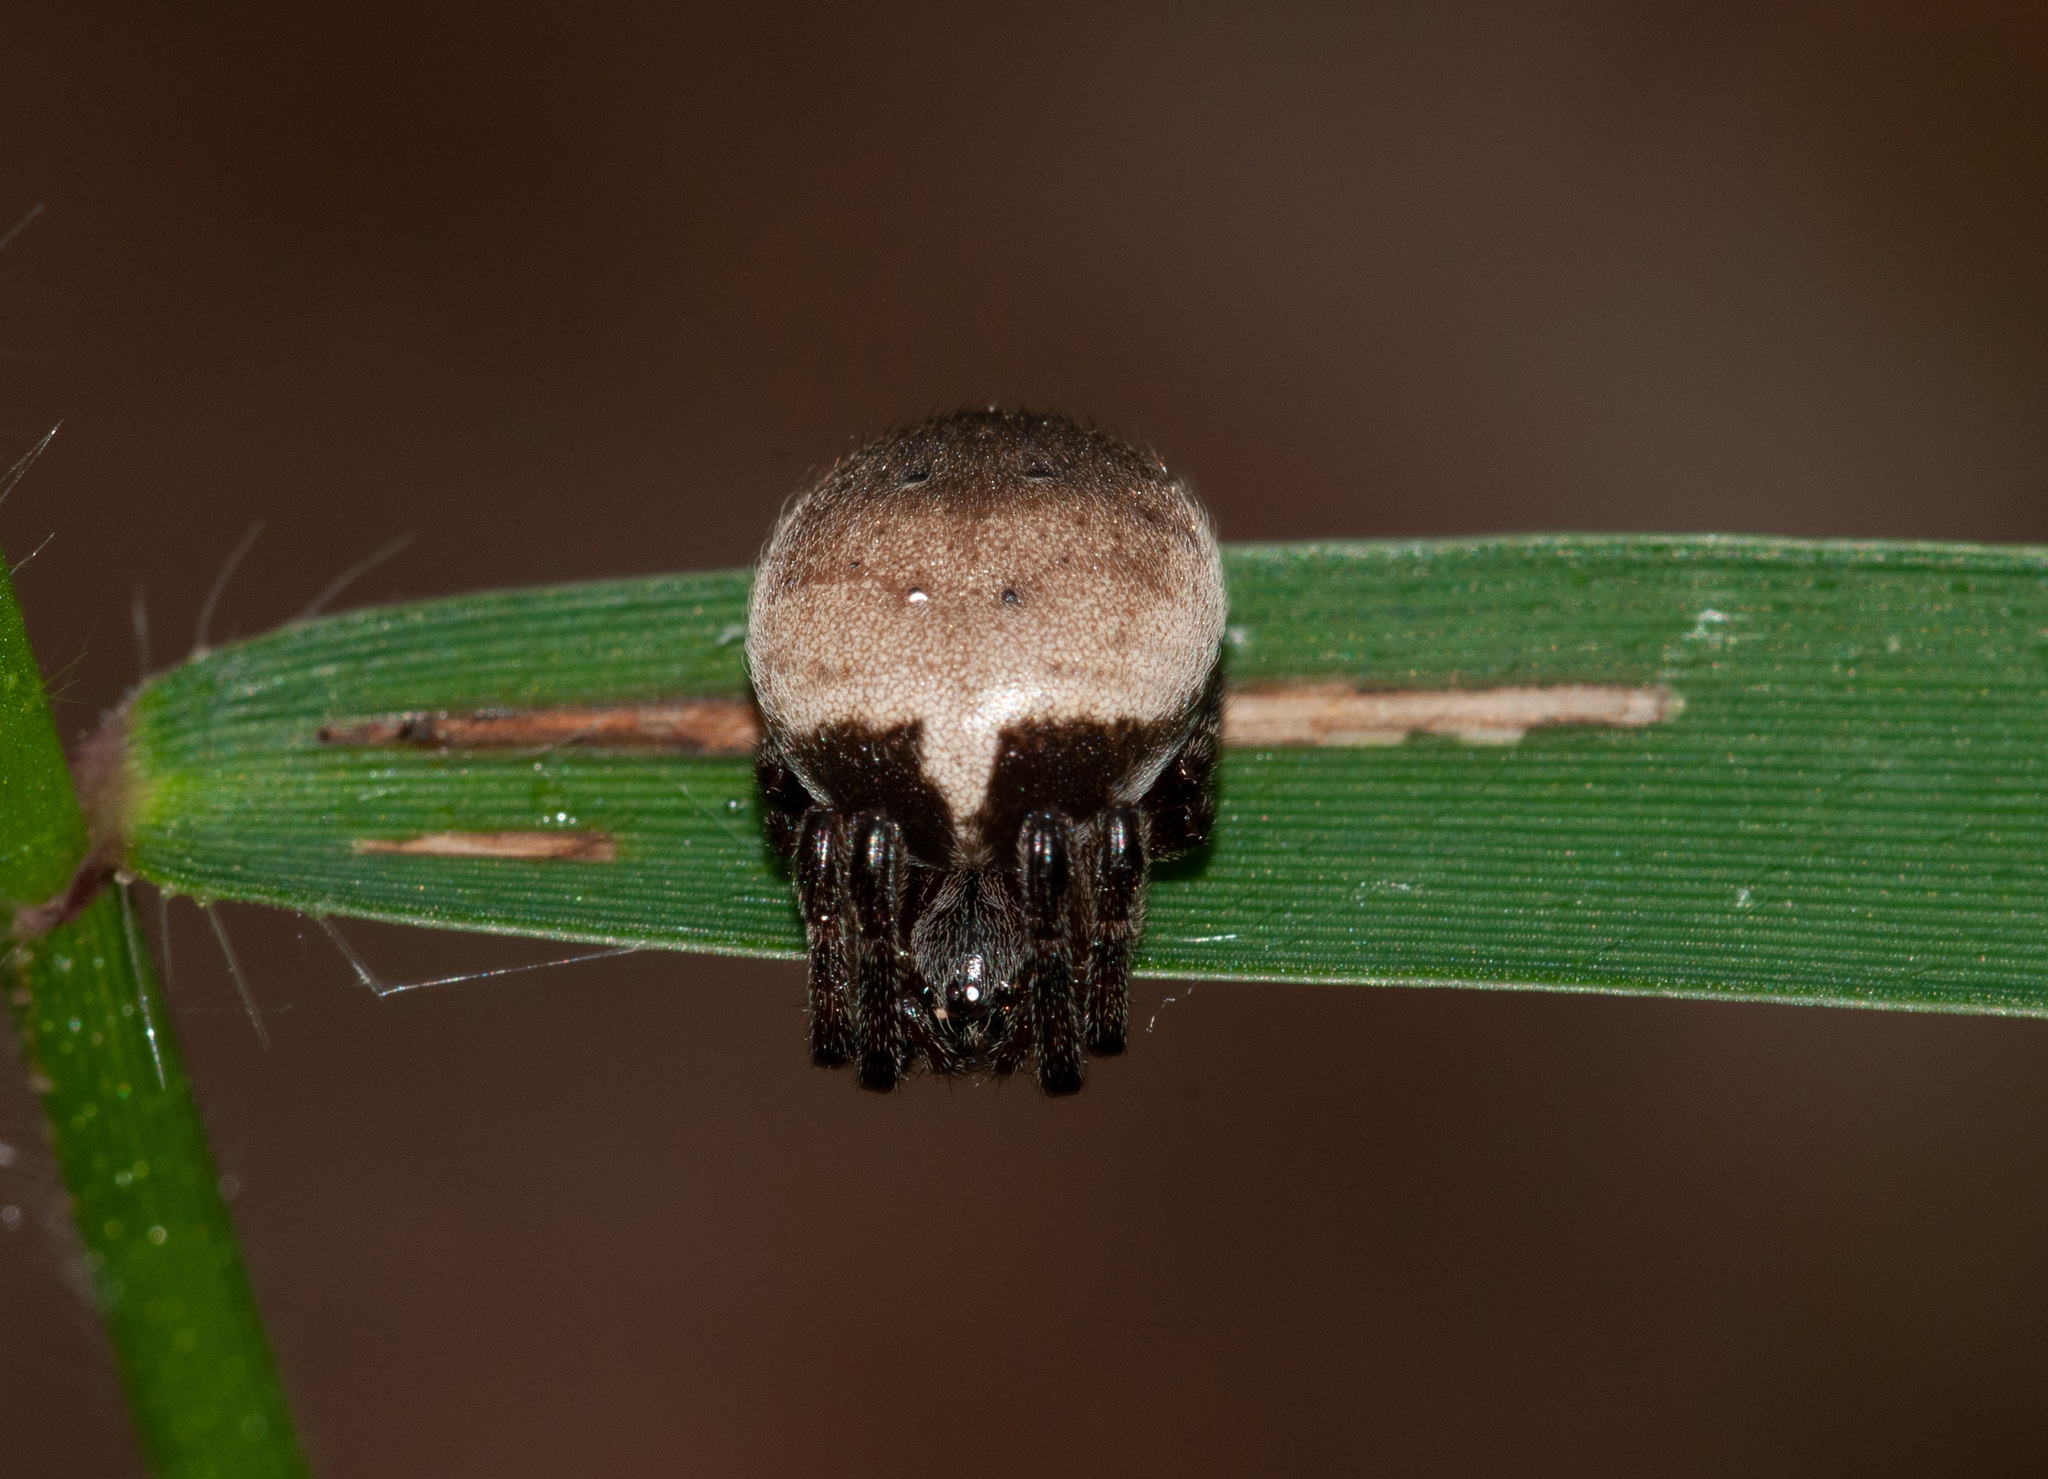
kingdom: Animalia
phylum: Arthropoda
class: Arachnida
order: Araneae
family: Araneidae
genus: Araneus
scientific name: Araneus dimidiatus
